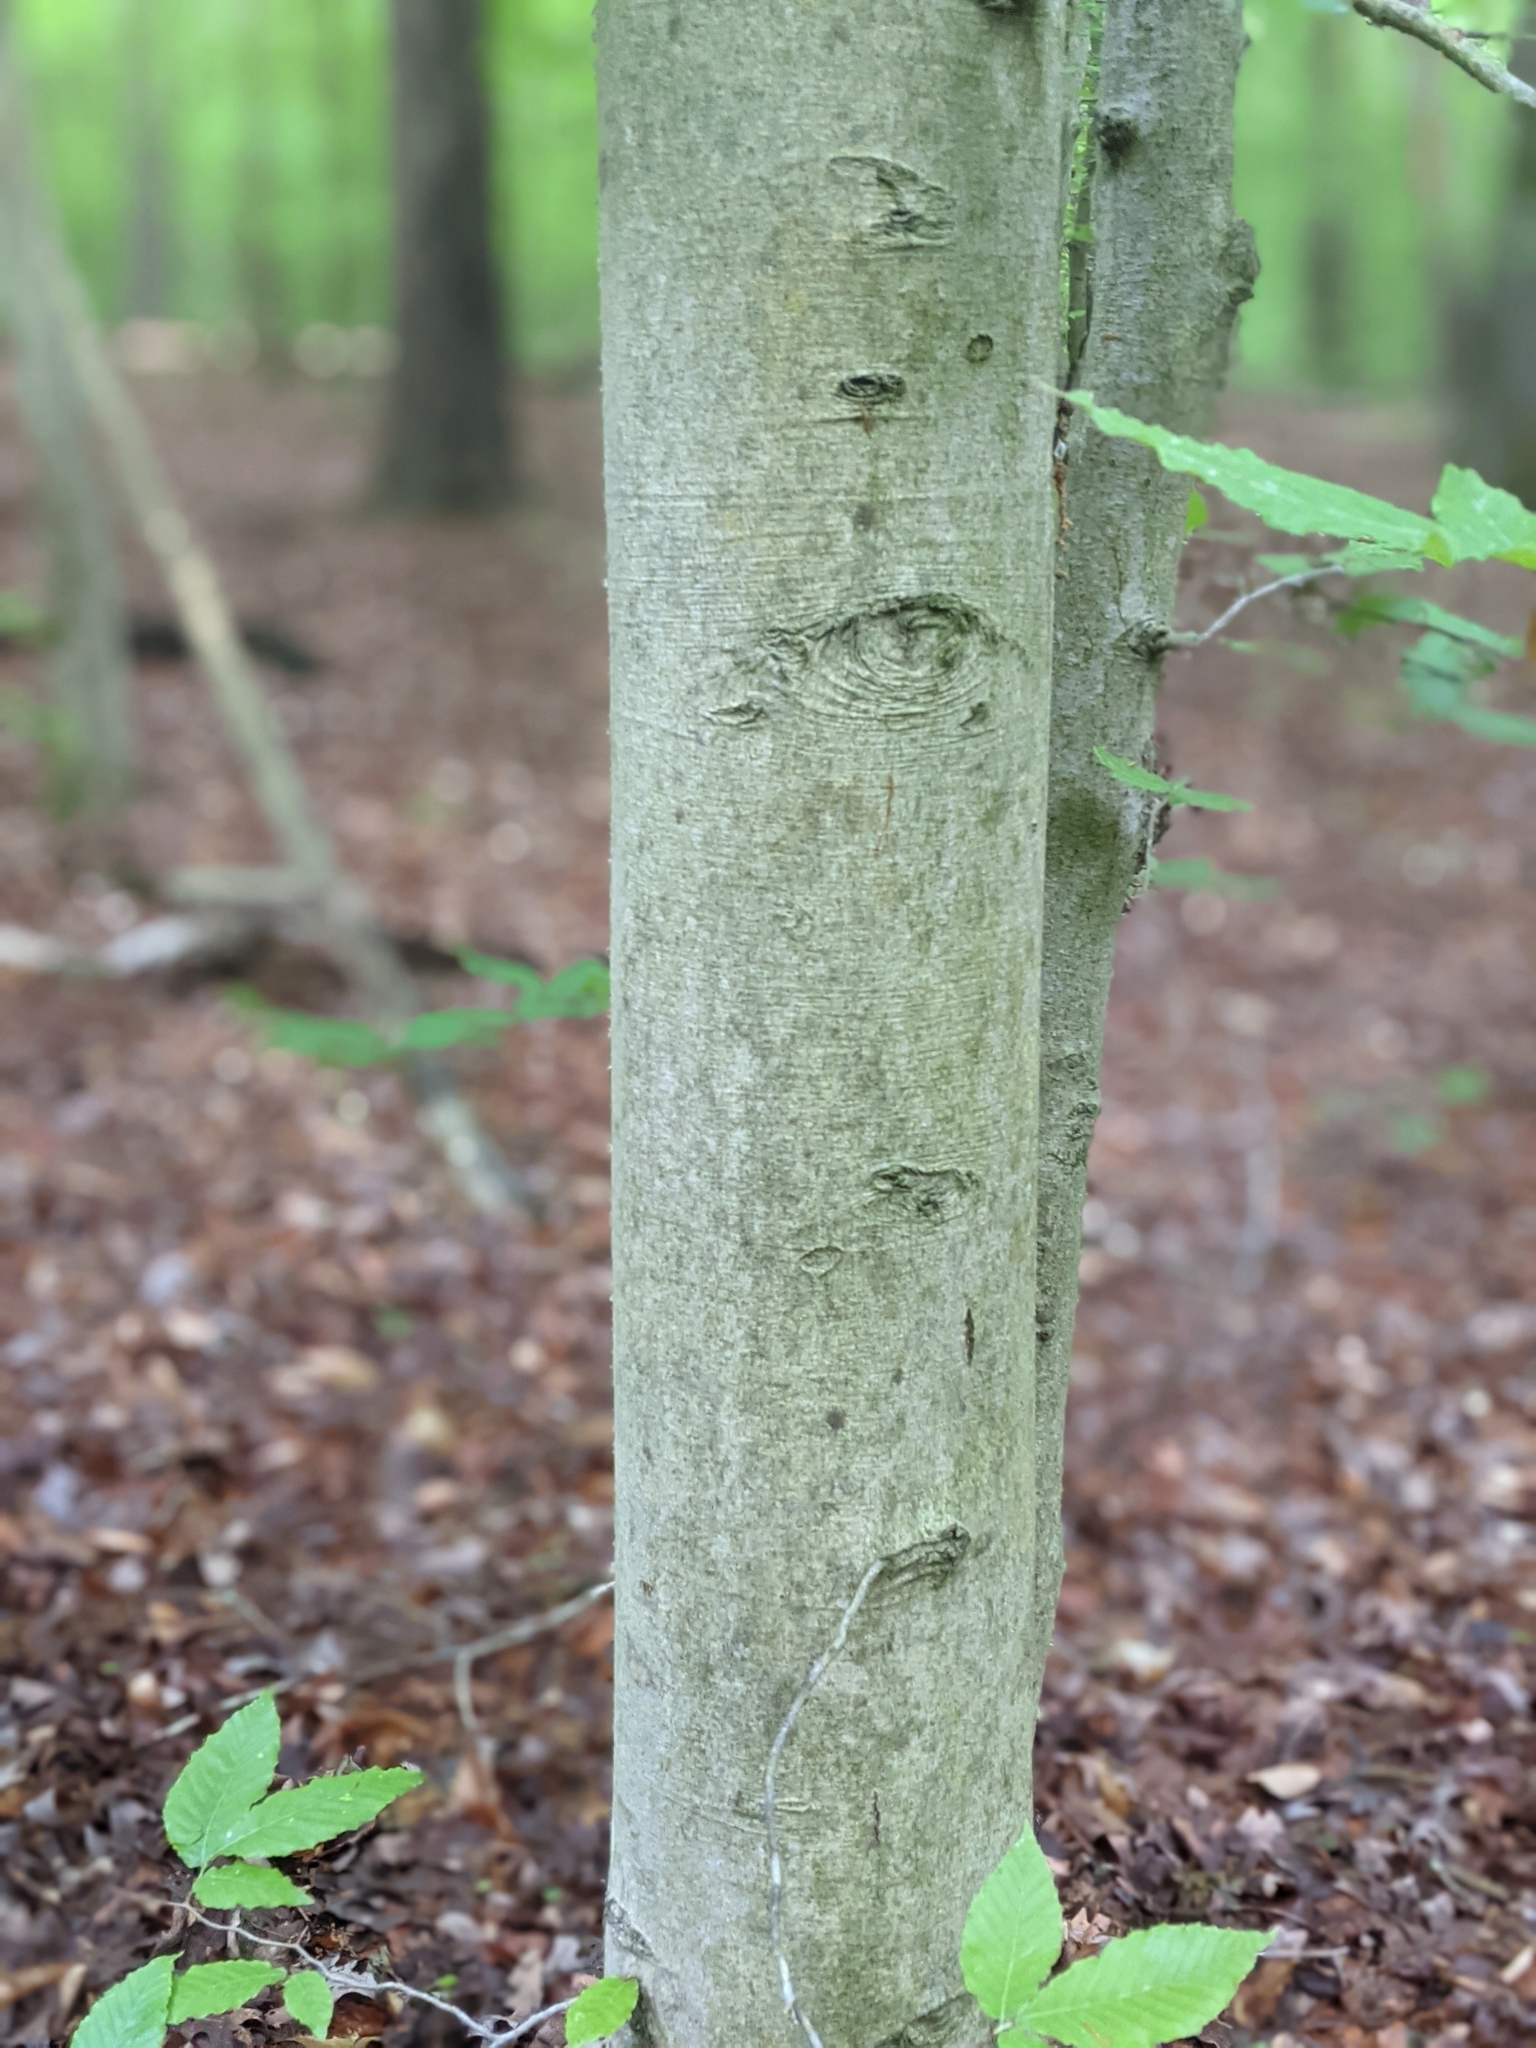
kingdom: Plantae
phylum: Tracheophyta
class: Magnoliopsida
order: Fagales
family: Fagaceae
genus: Fagus
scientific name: Fagus grandifolia
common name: American beech
